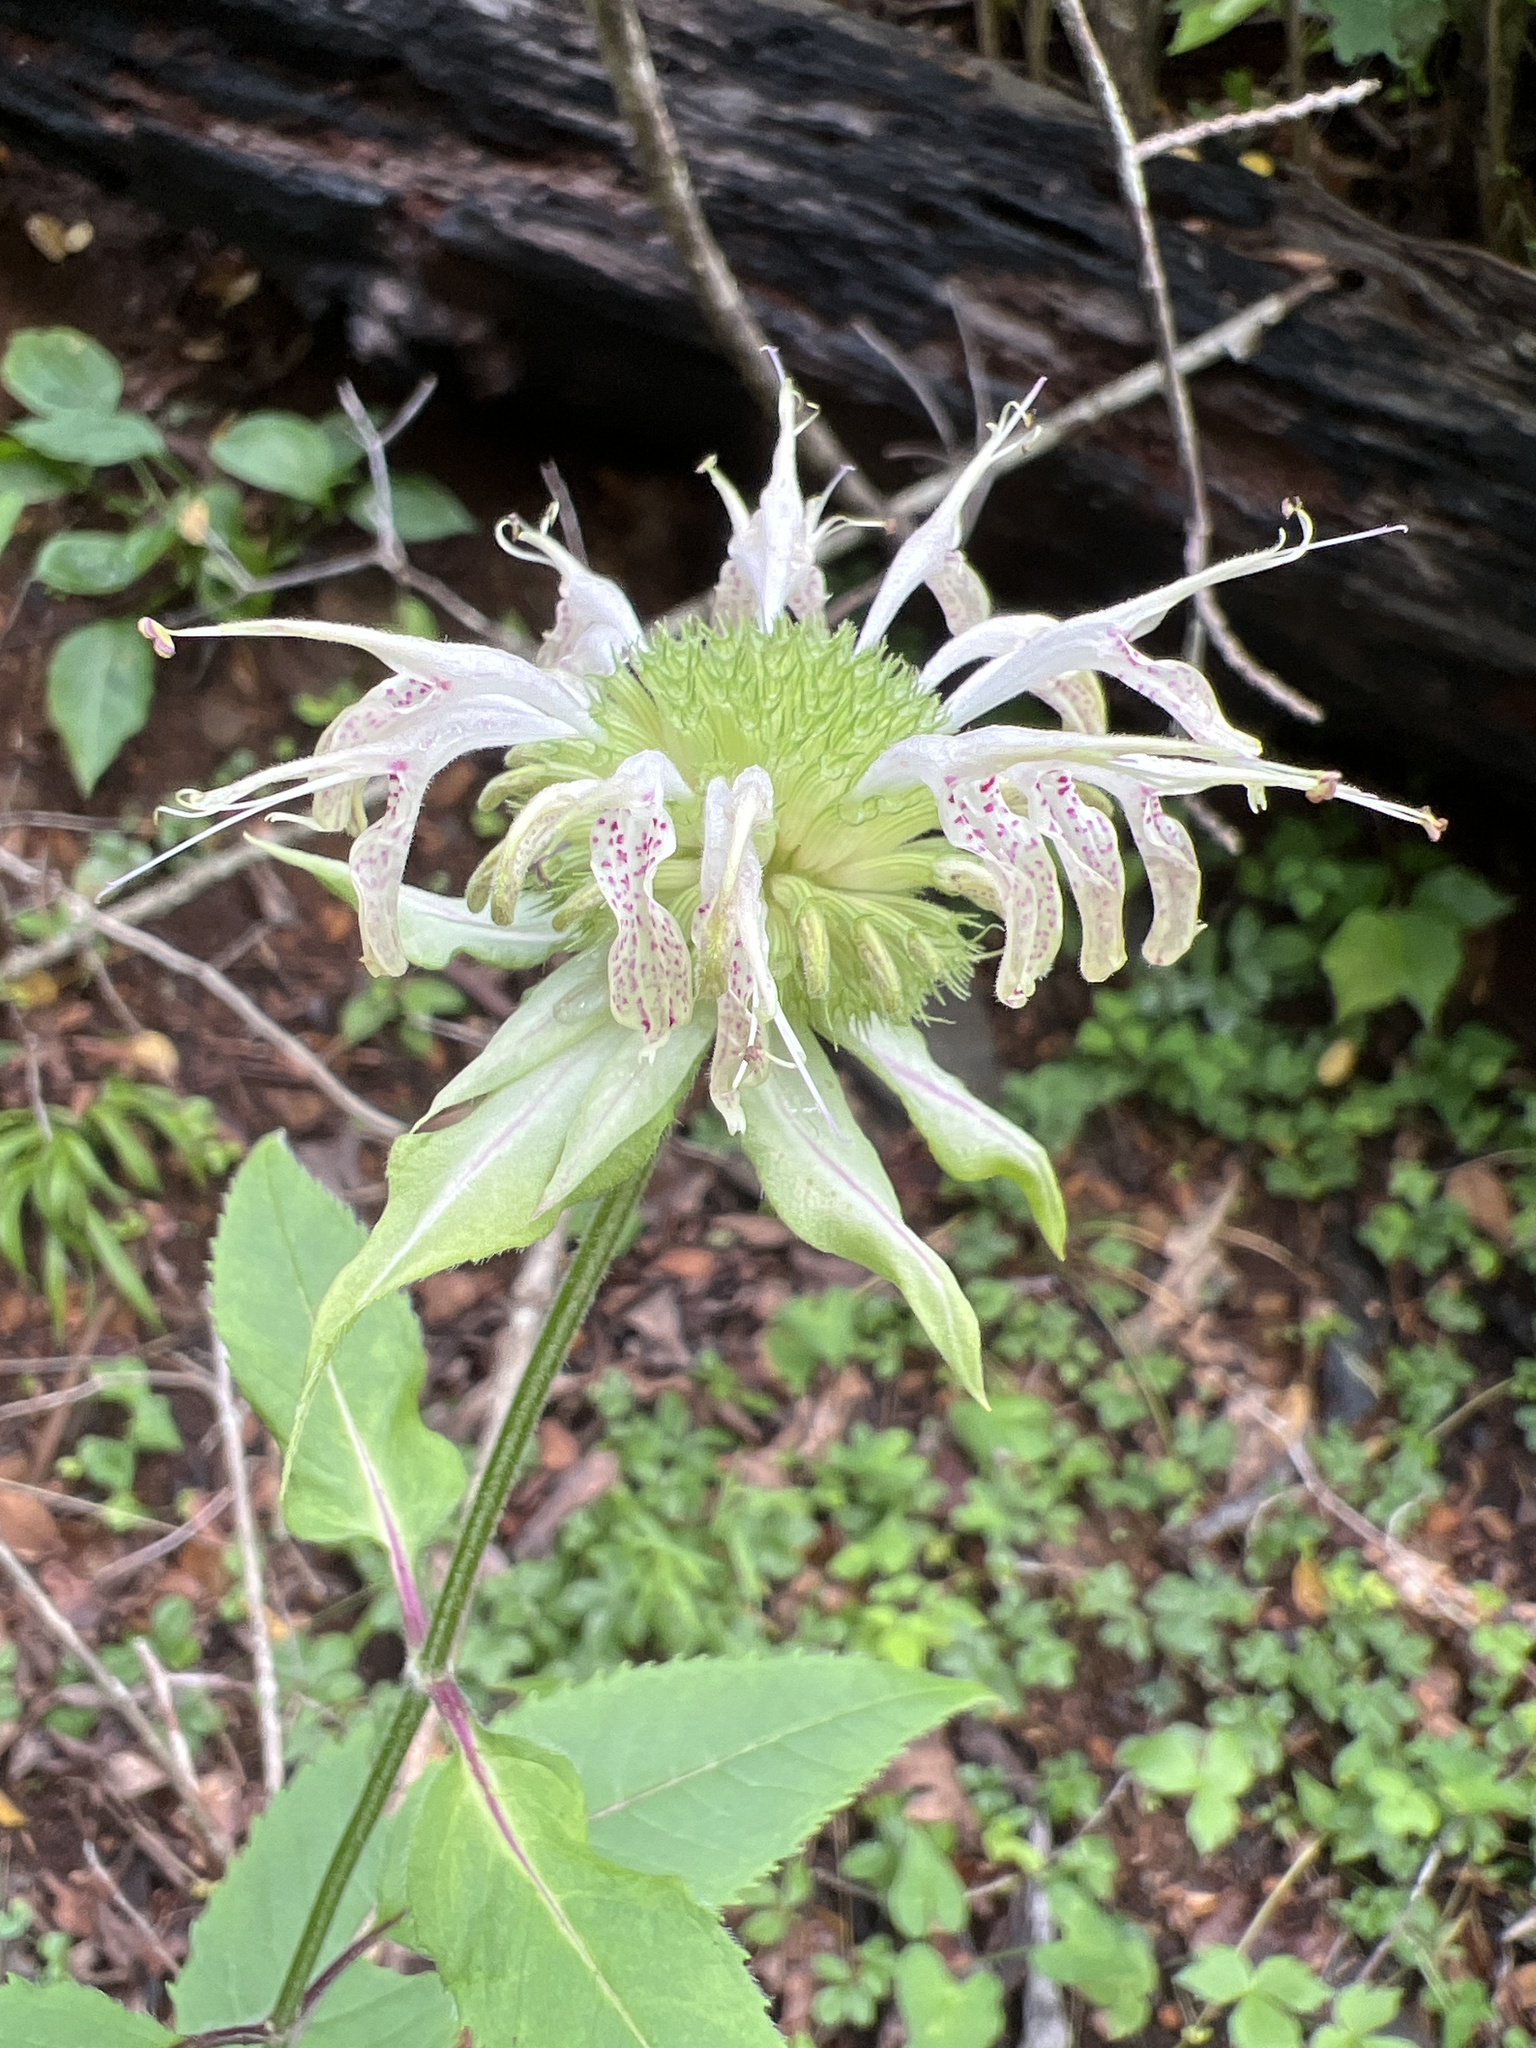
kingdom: Plantae
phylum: Tracheophyta
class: Magnoliopsida
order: Lamiales
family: Lamiaceae
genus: Monarda
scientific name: Monarda clinopodia
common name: Basil beebalm
